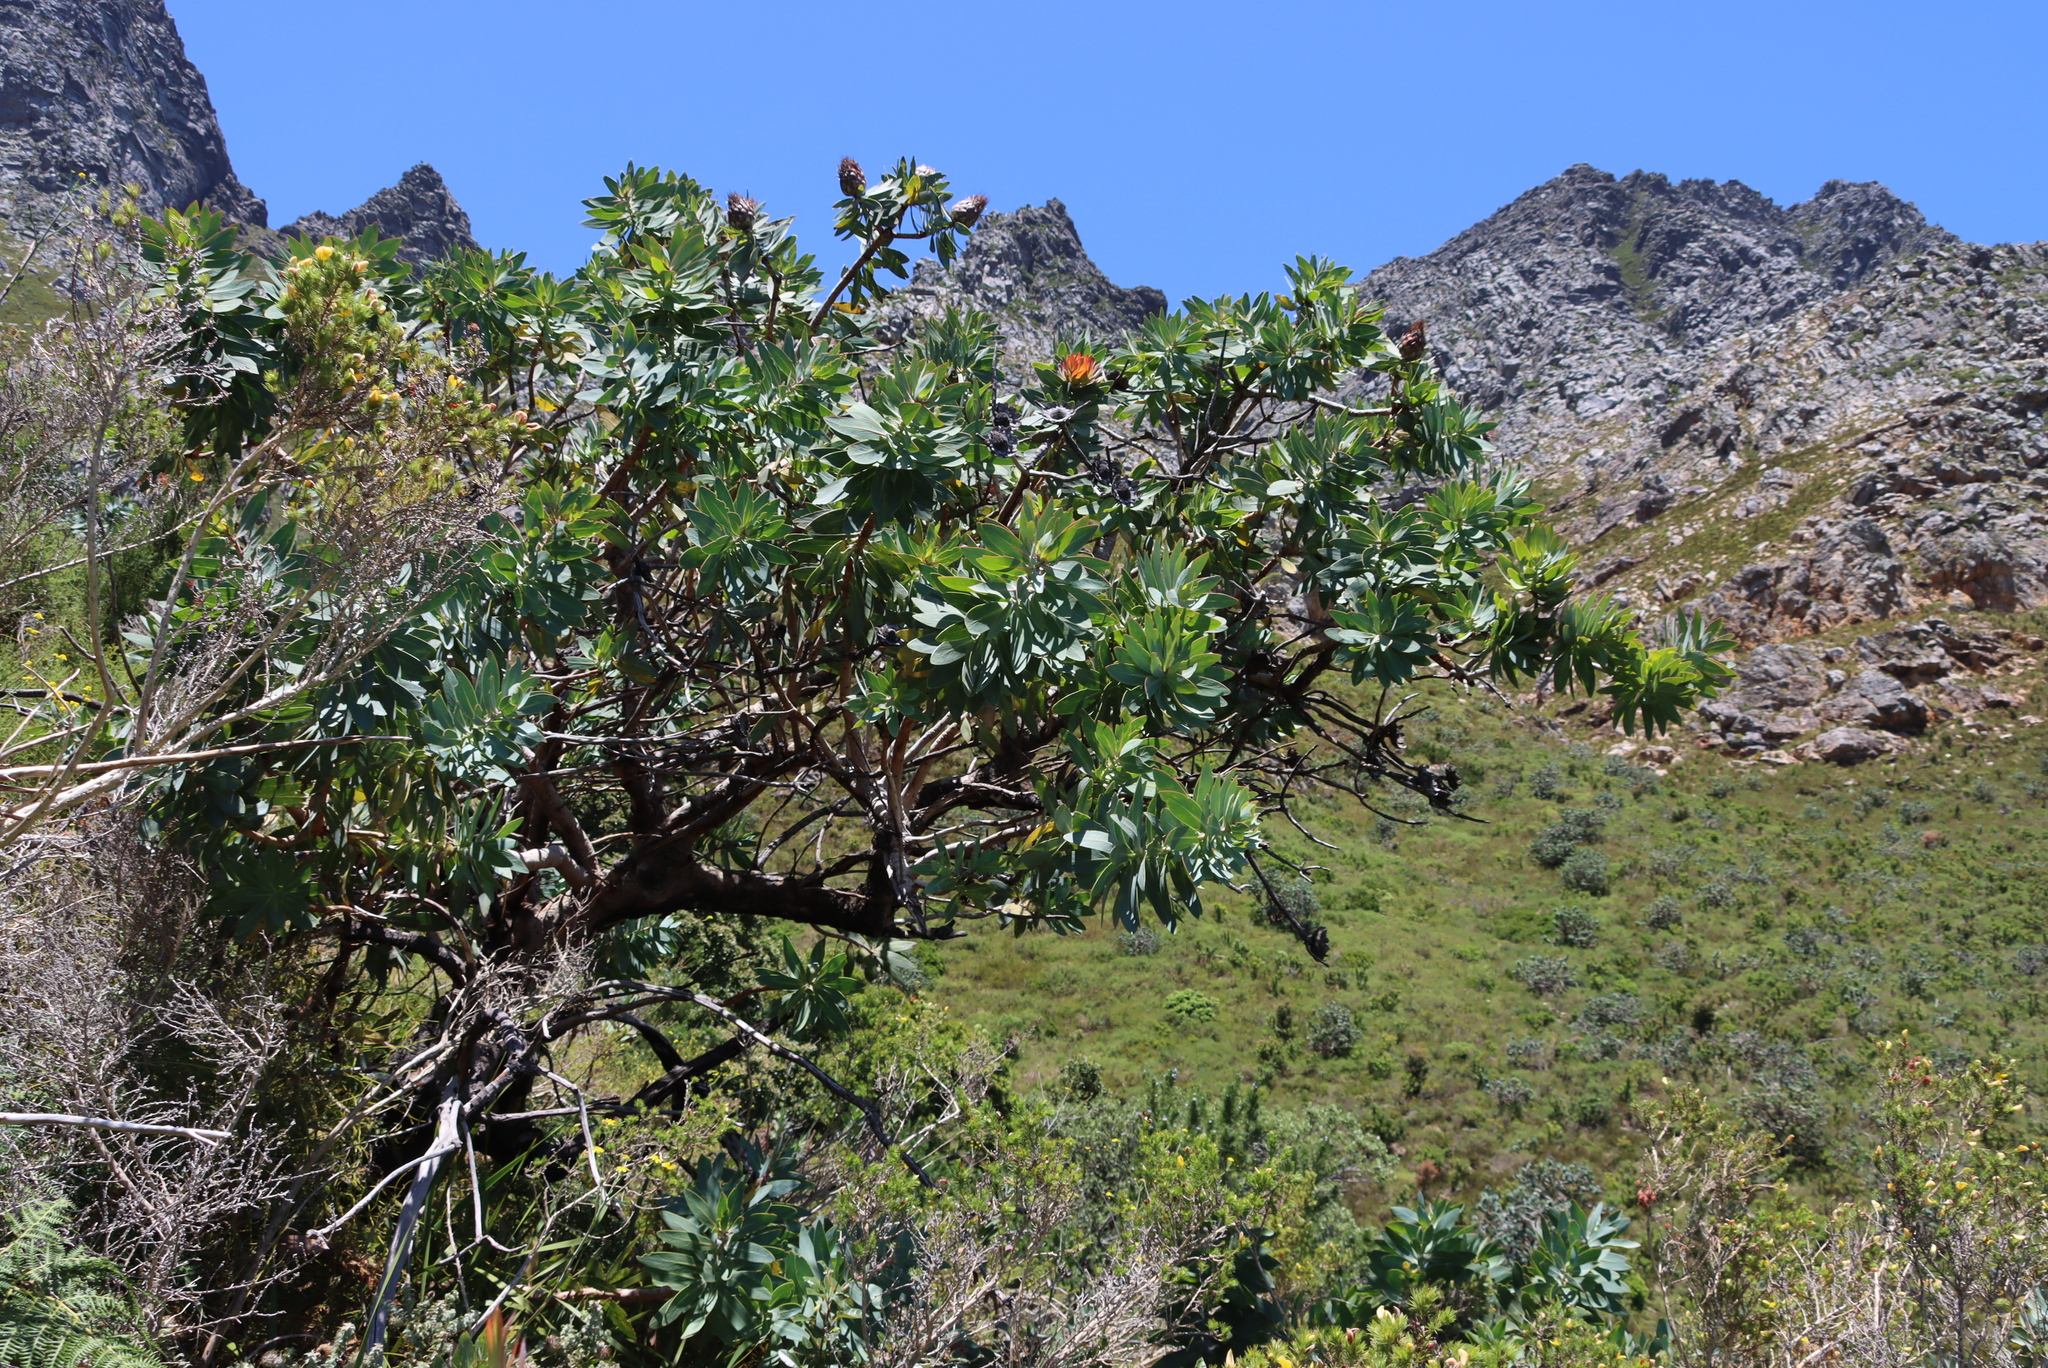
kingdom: Plantae
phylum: Tracheophyta
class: Magnoliopsida
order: Proteales
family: Proteaceae
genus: Protea
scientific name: Protea nitida
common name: Tree protea
